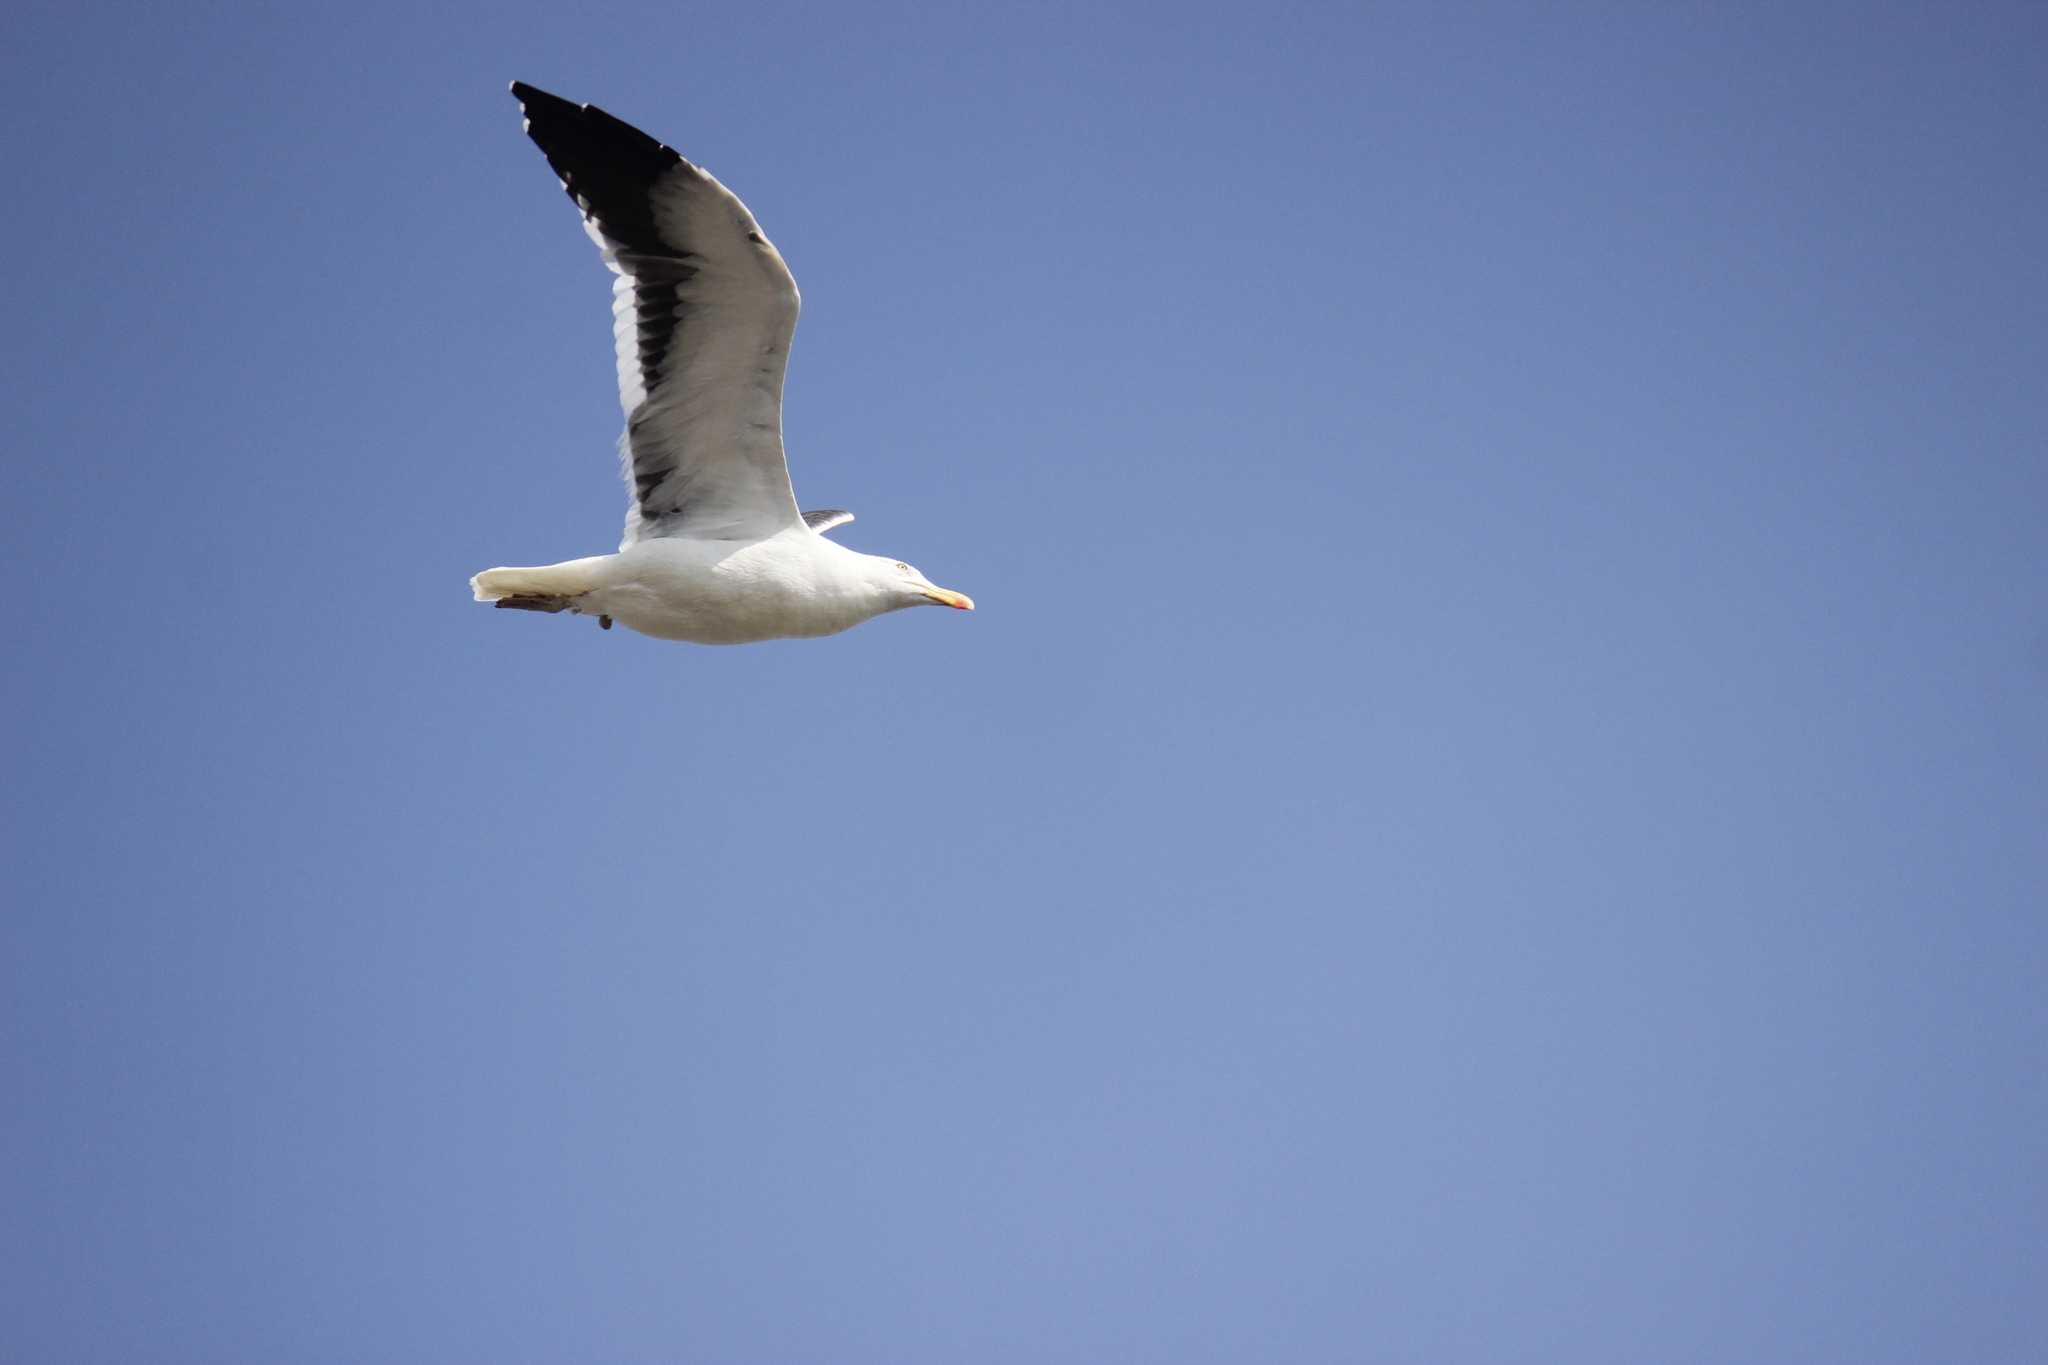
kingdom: Animalia
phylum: Chordata
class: Aves
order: Charadriiformes
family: Laridae
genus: Larus
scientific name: Larus dominicanus
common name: Kelp gull
